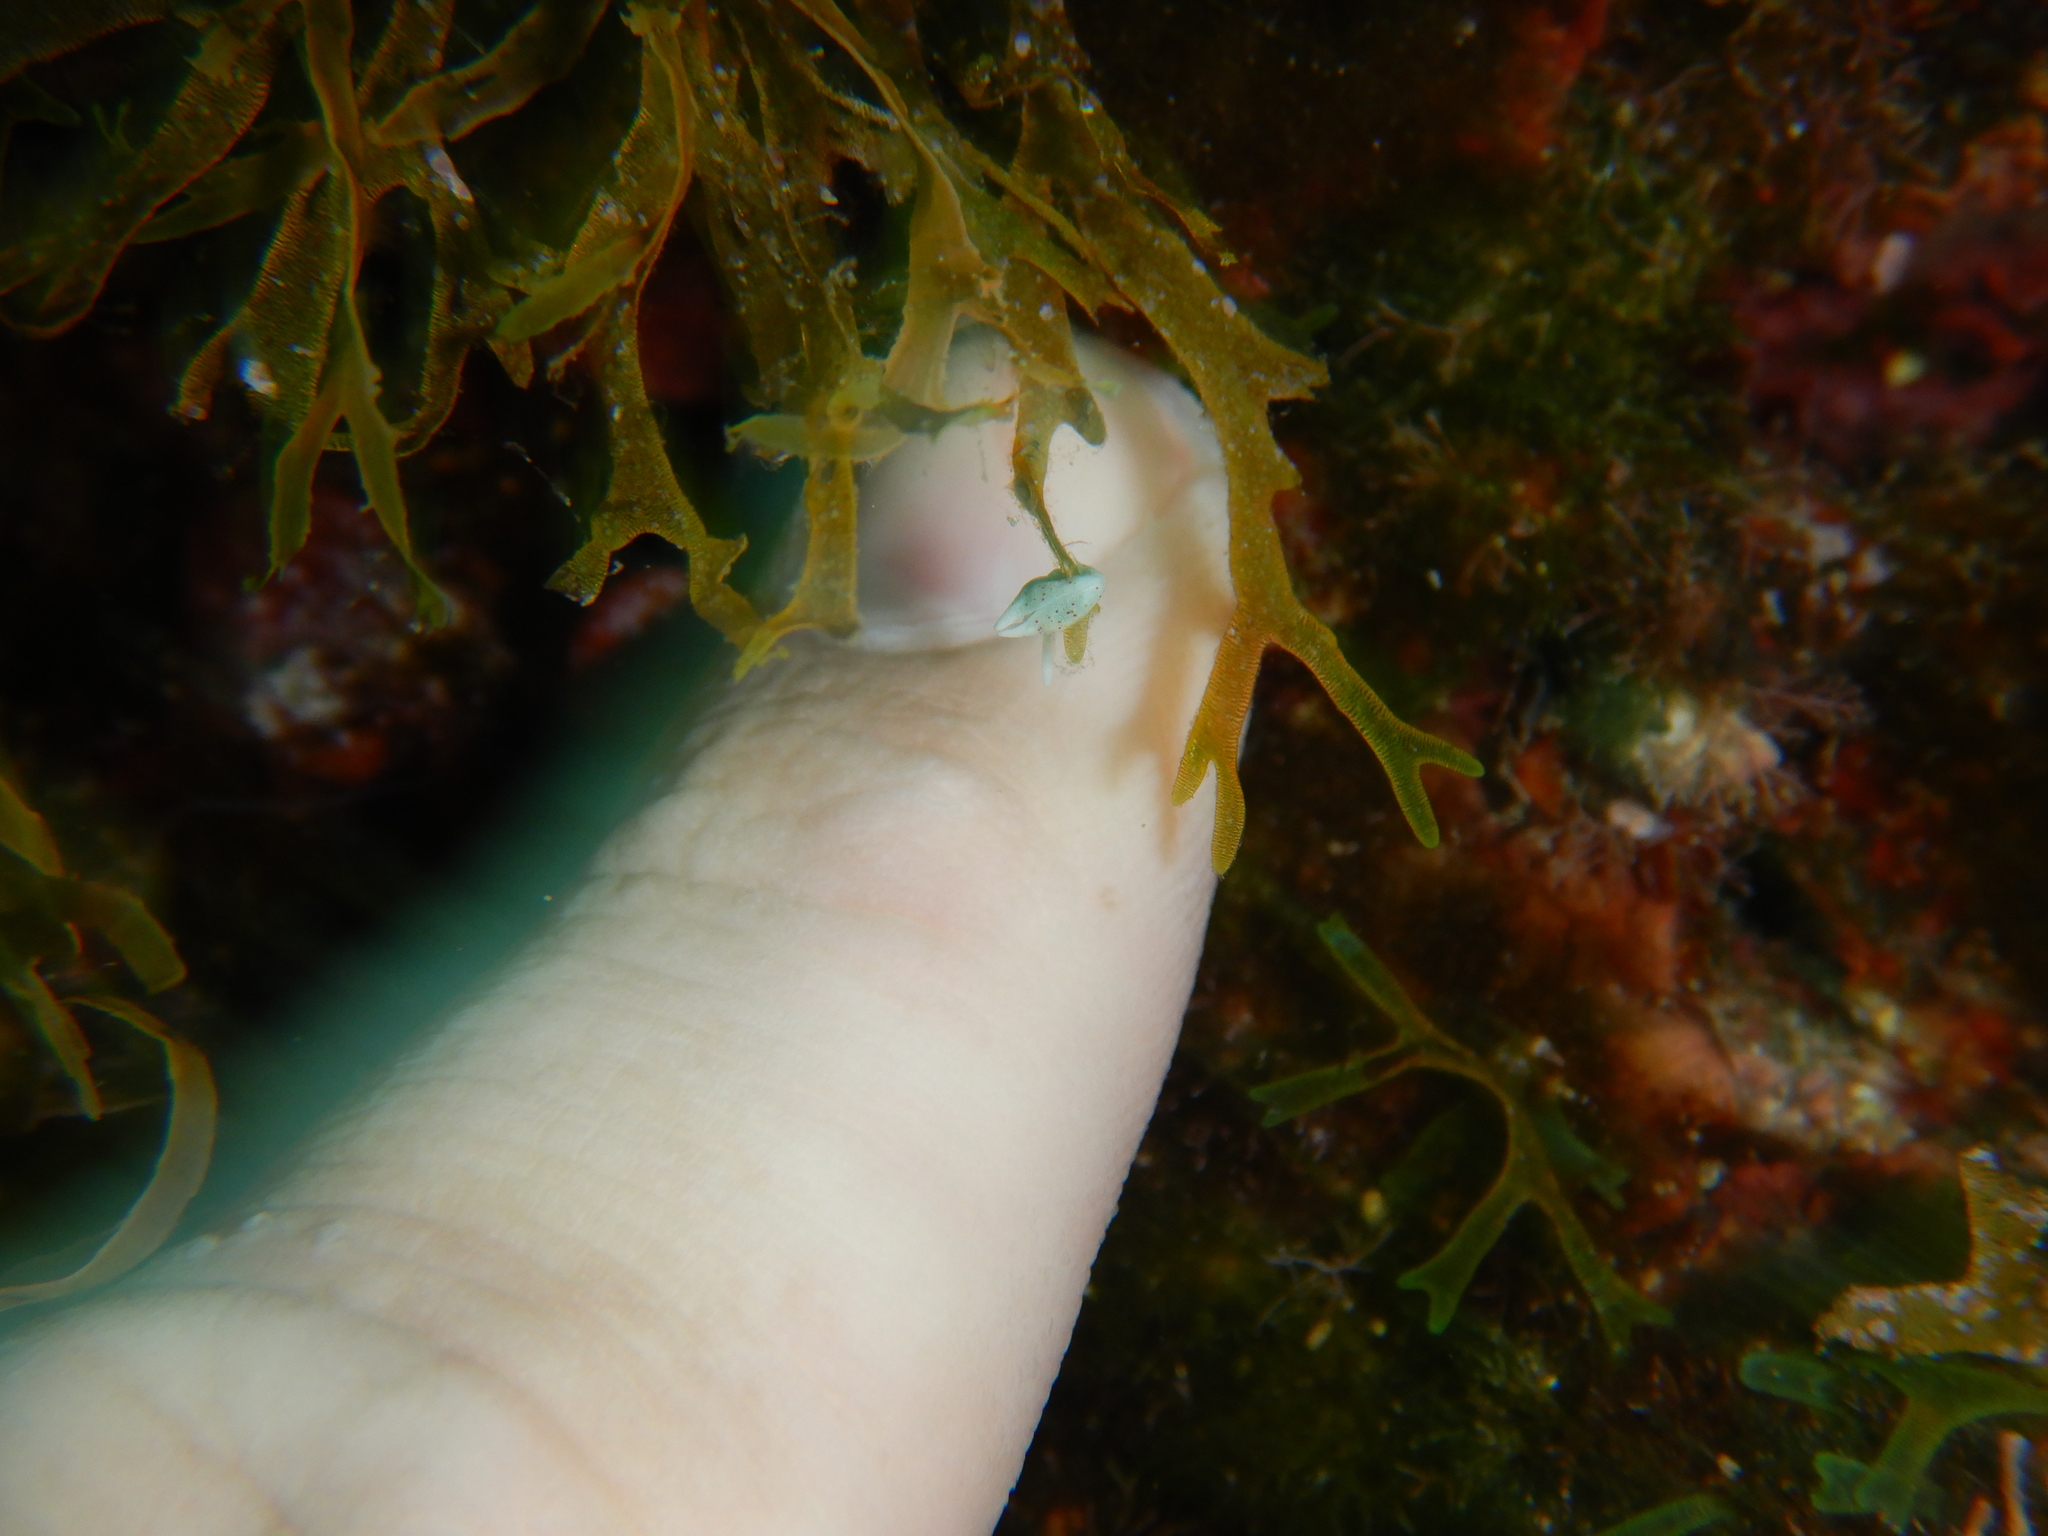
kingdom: Animalia
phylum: Mollusca
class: Gastropoda
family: Plakobranchidae
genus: Elysia
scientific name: Elysia timida
